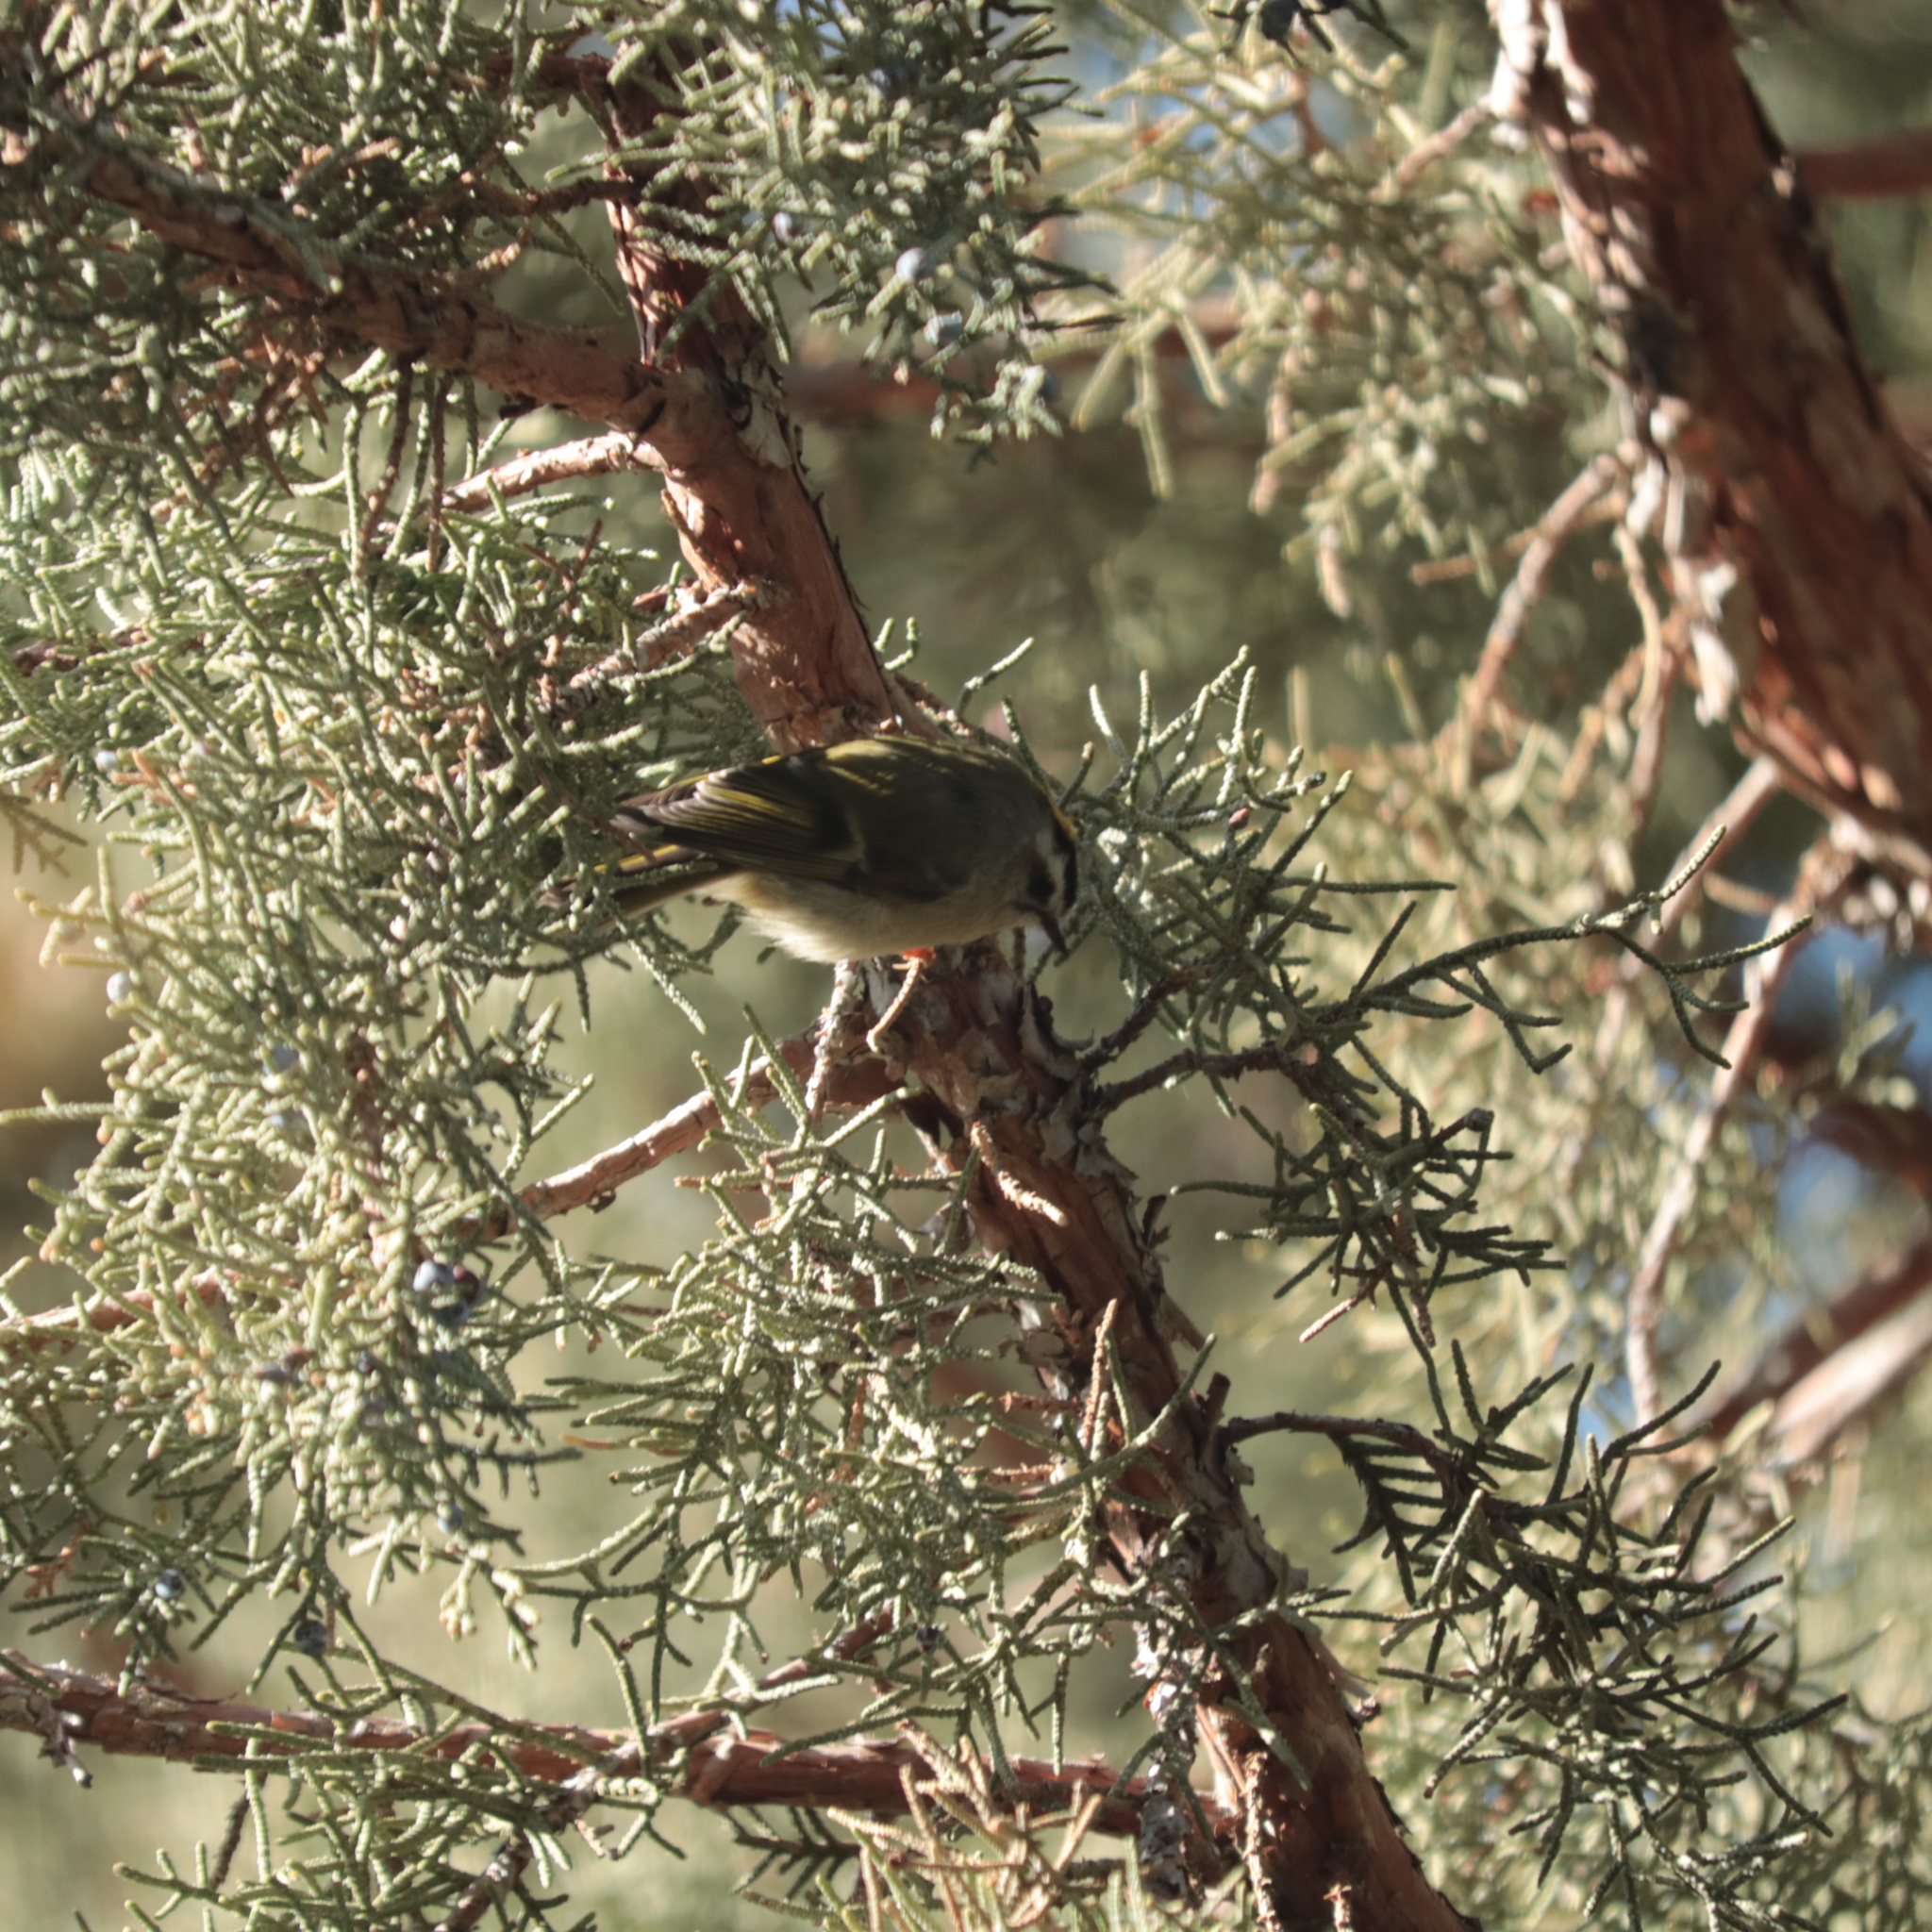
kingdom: Animalia
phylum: Chordata
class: Aves
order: Passeriformes
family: Regulidae
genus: Regulus
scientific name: Regulus satrapa
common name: Golden-crowned kinglet
